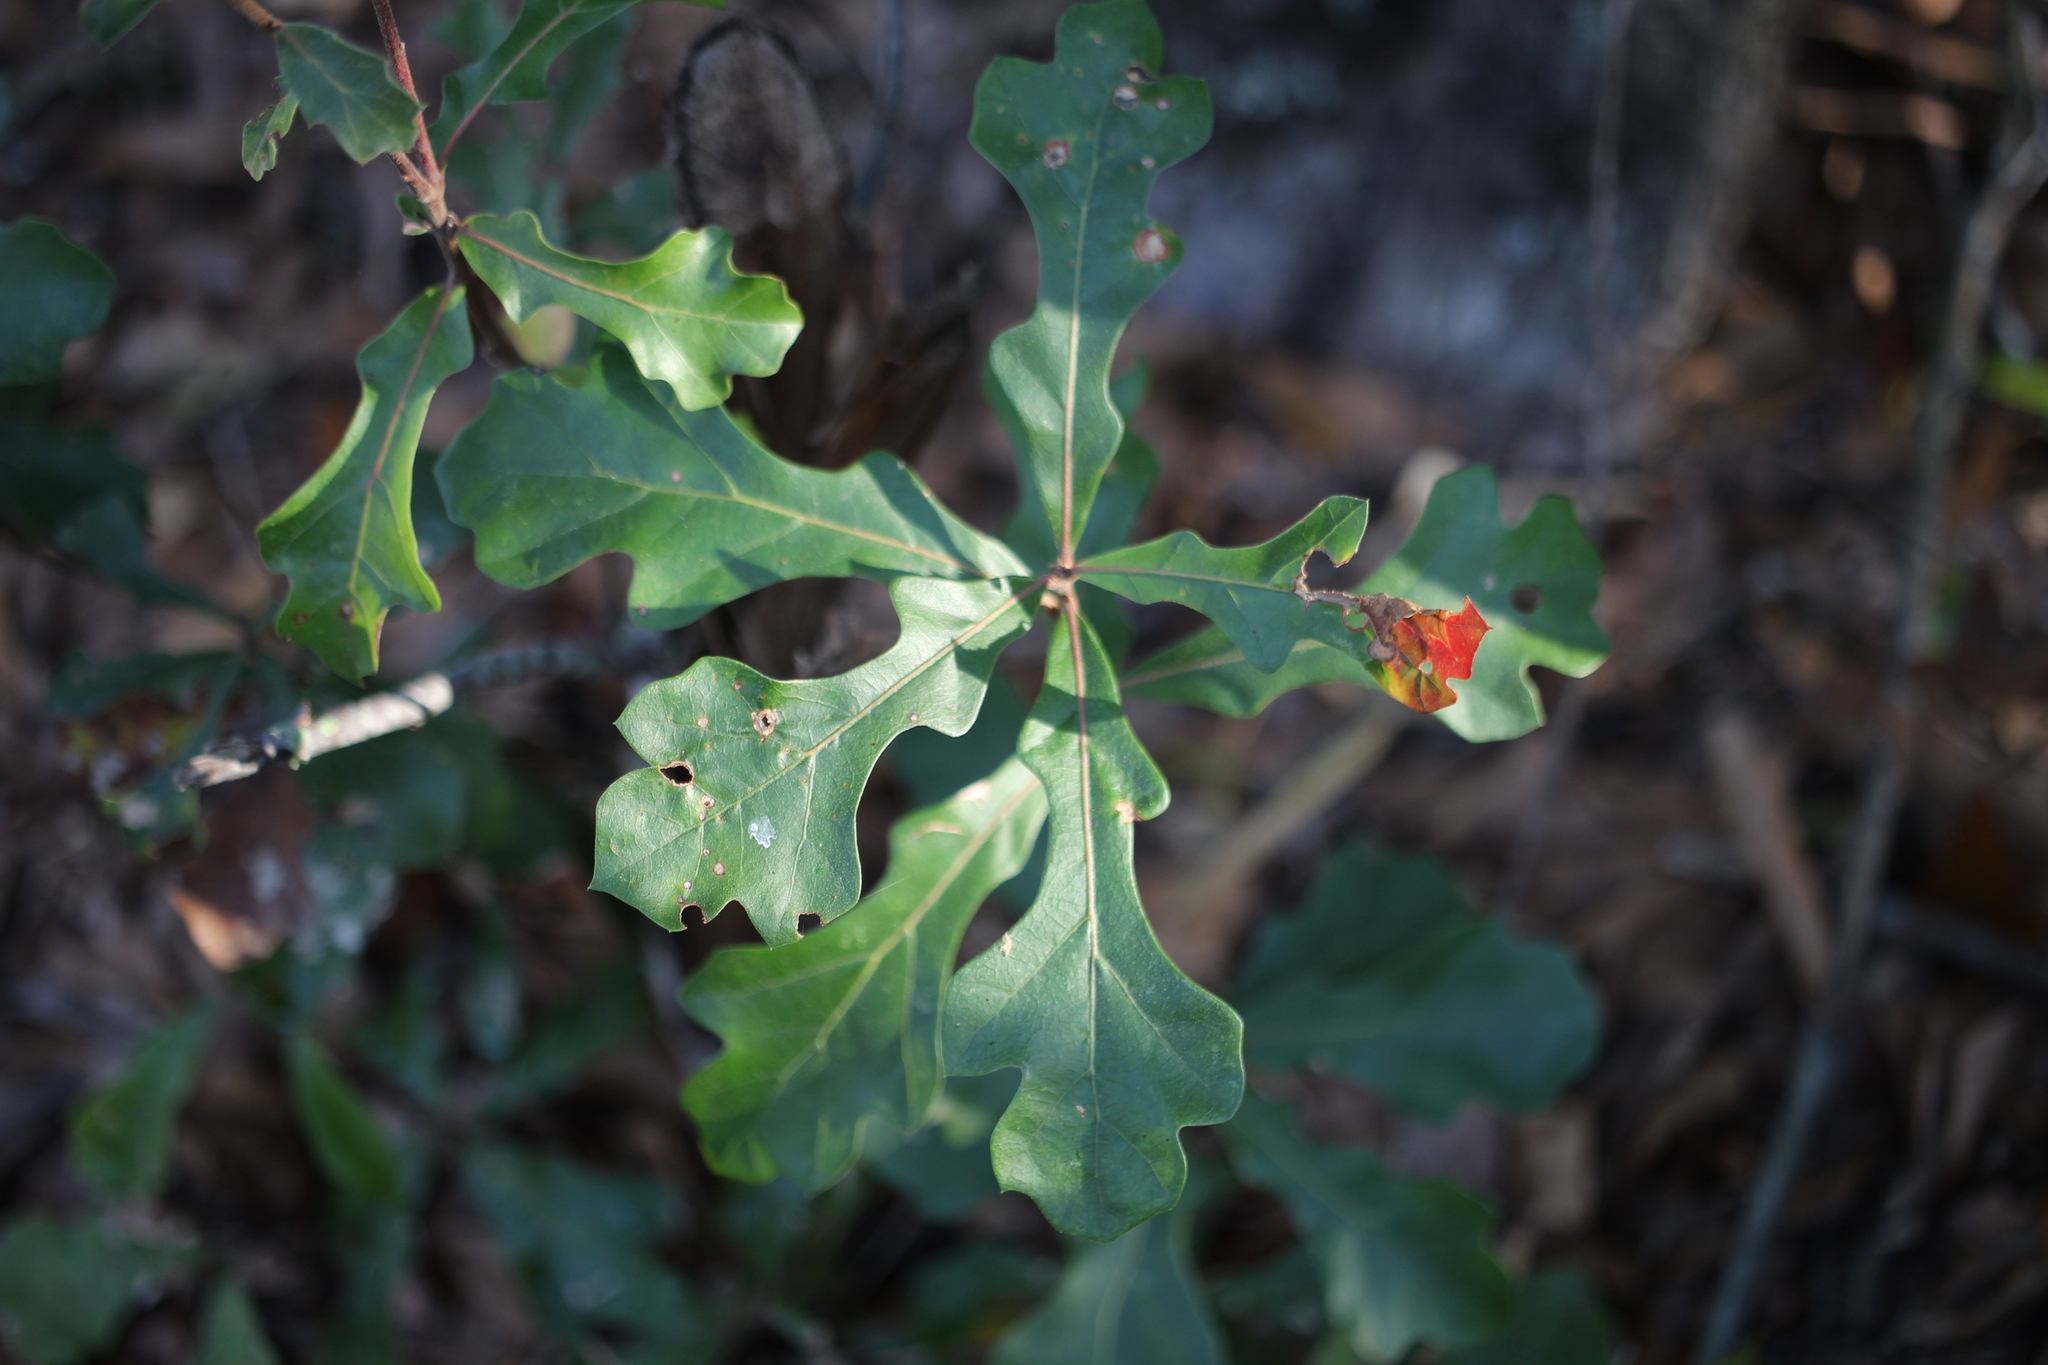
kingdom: Plantae
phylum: Tracheophyta
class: Magnoliopsida
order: Fagales
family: Fagaceae
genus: Quercus
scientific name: Quercus nigra
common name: Water oak
